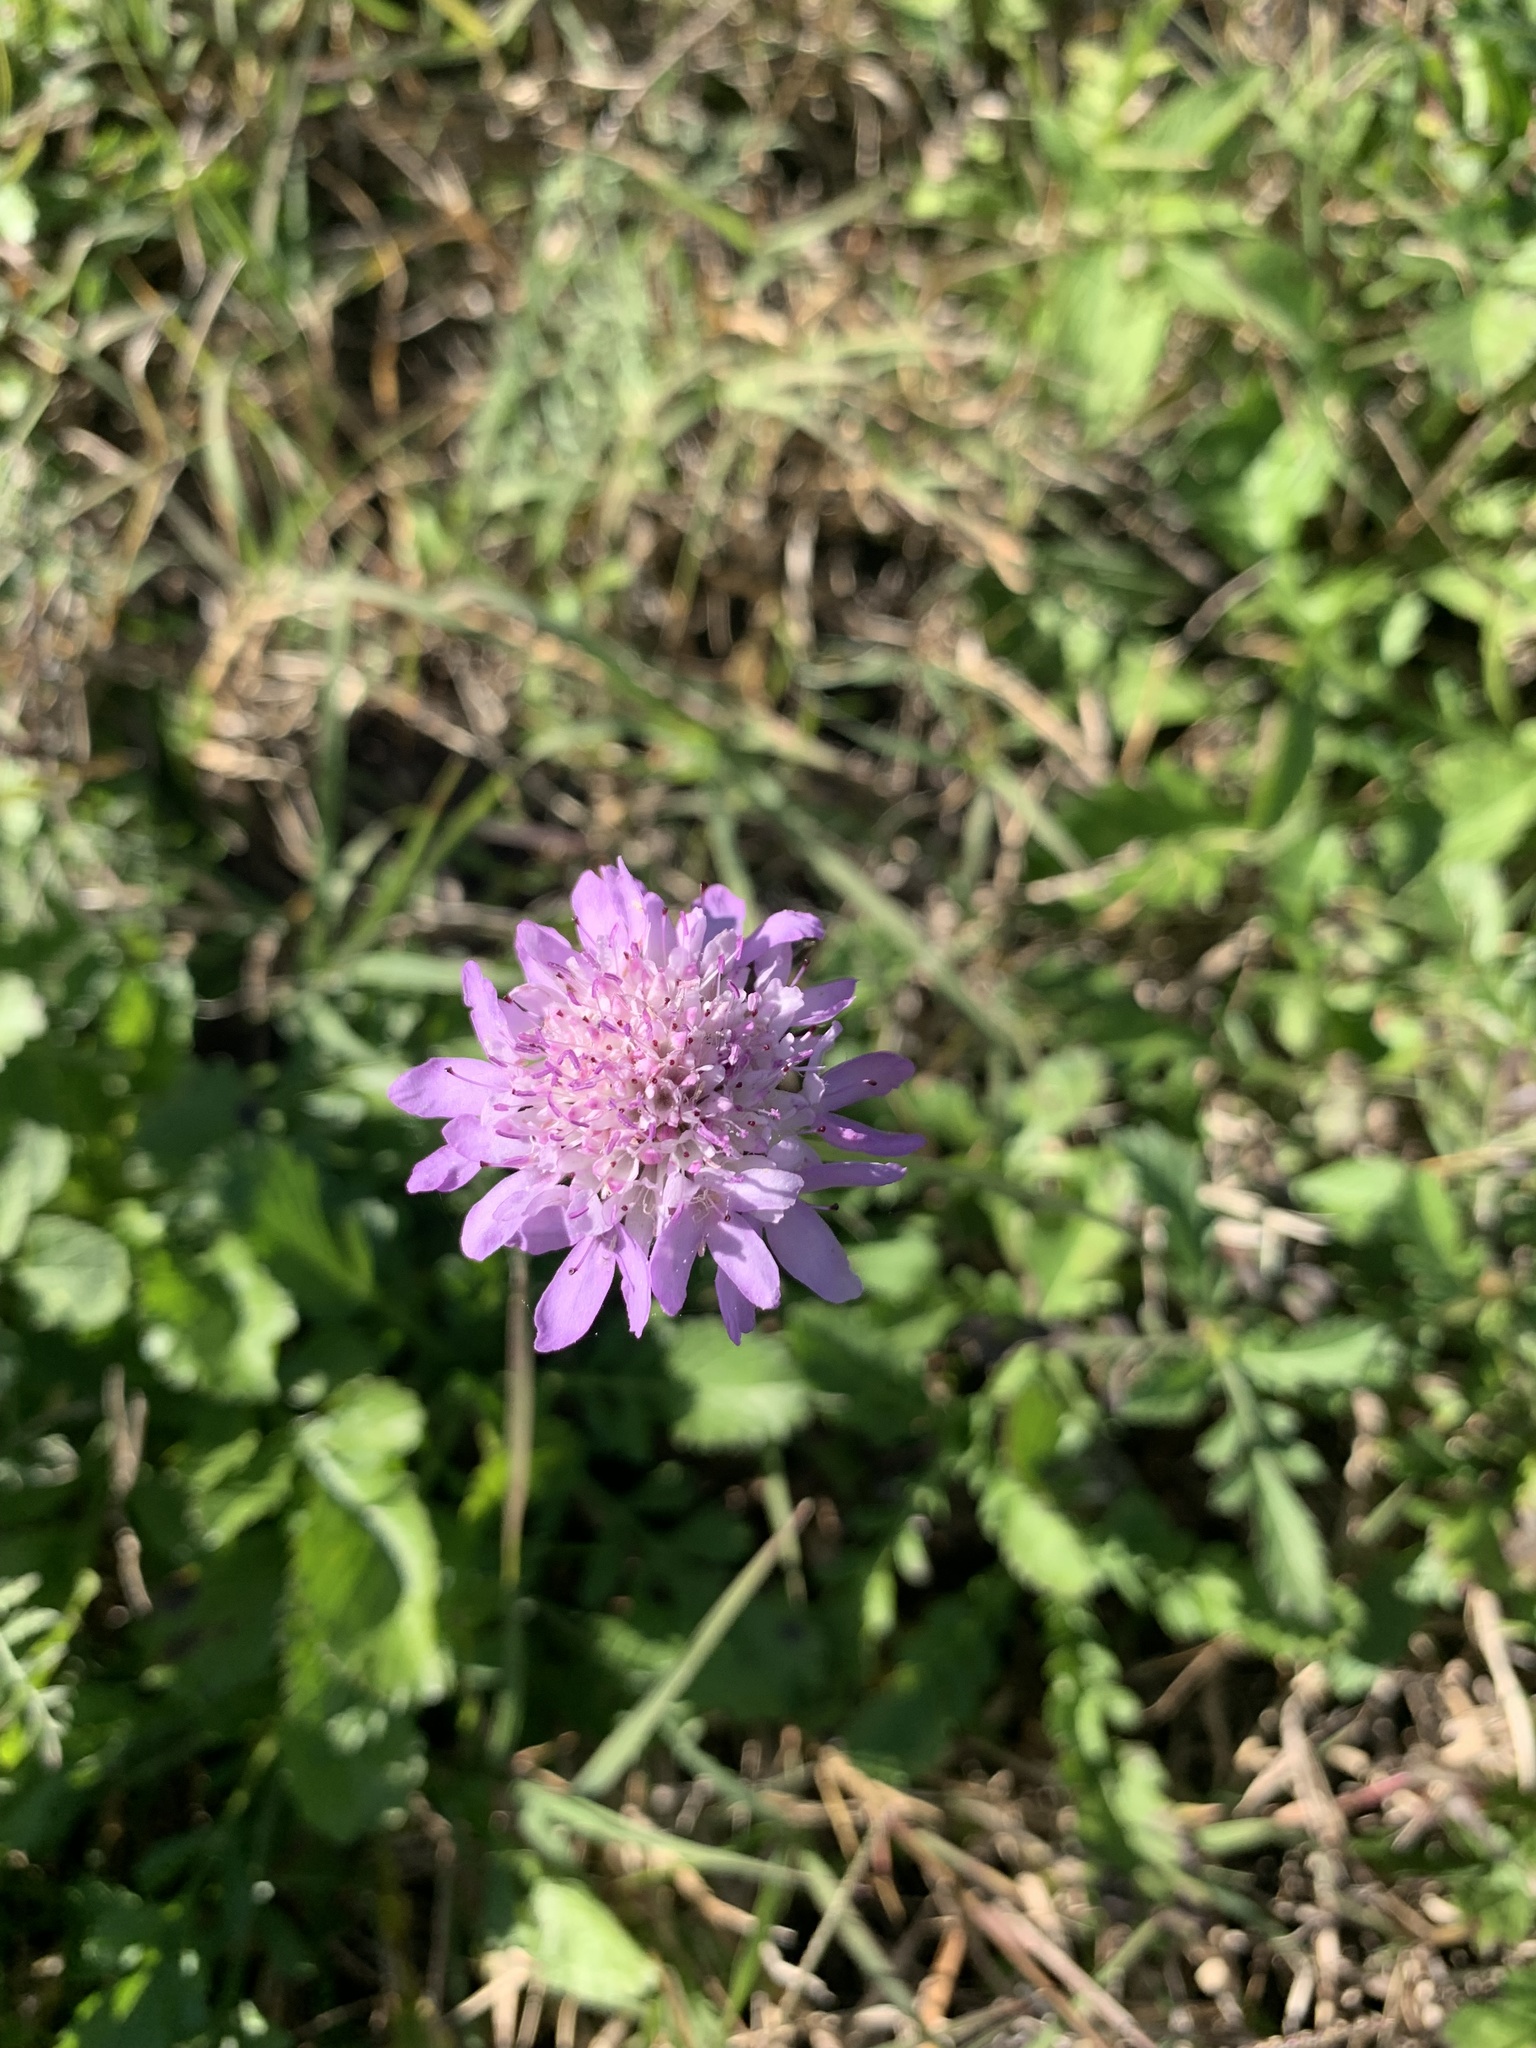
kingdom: Plantae
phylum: Tracheophyta
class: Magnoliopsida
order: Dipsacales
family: Caprifoliaceae
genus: Sixalix
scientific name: Sixalix atropurpurea
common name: Sweet scabious
